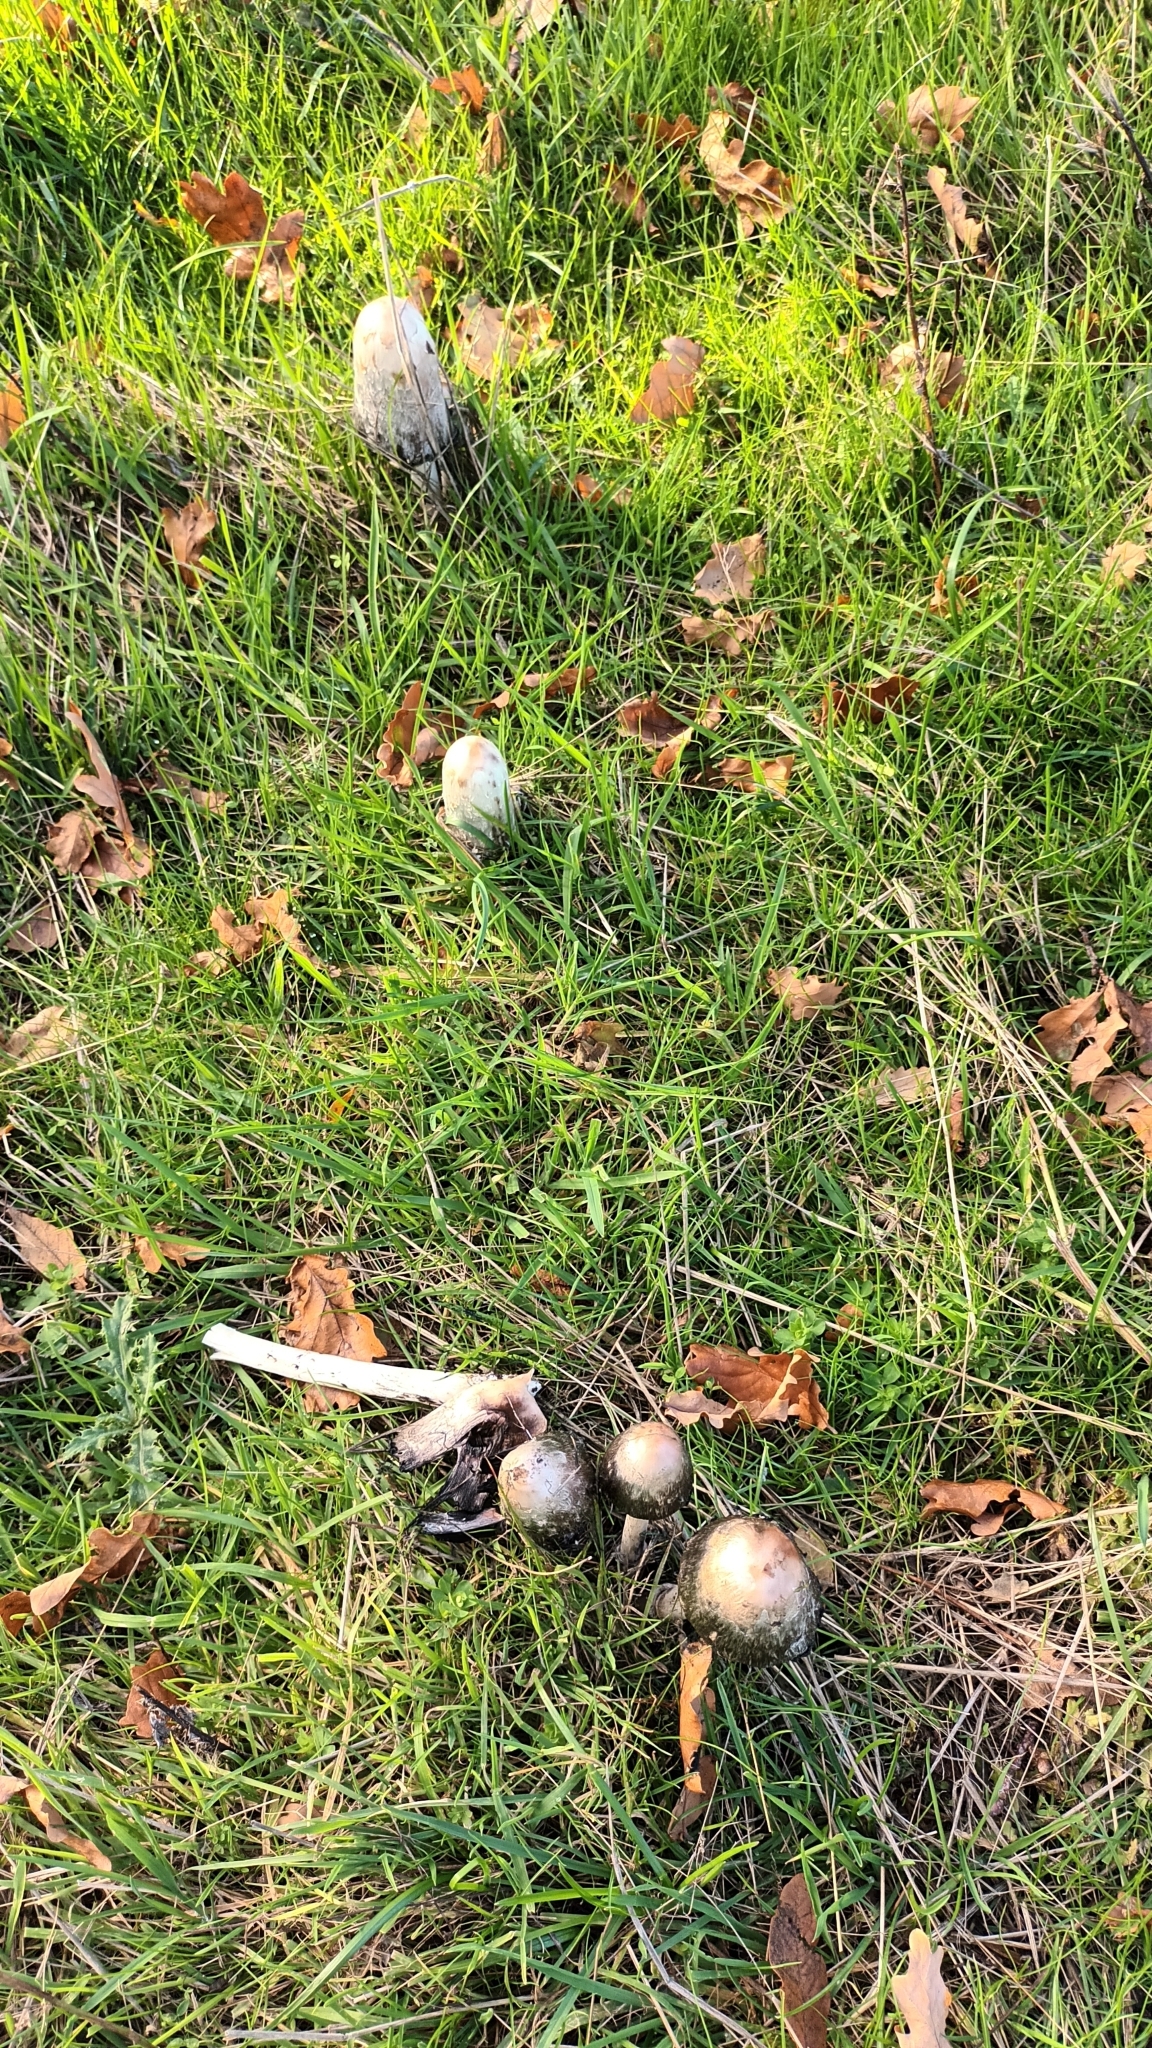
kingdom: Fungi
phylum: Basidiomycota
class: Agaricomycetes
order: Agaricales
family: Agaricaceae
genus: Coprinus
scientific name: Coprinus comatus
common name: Lawyer's wig
